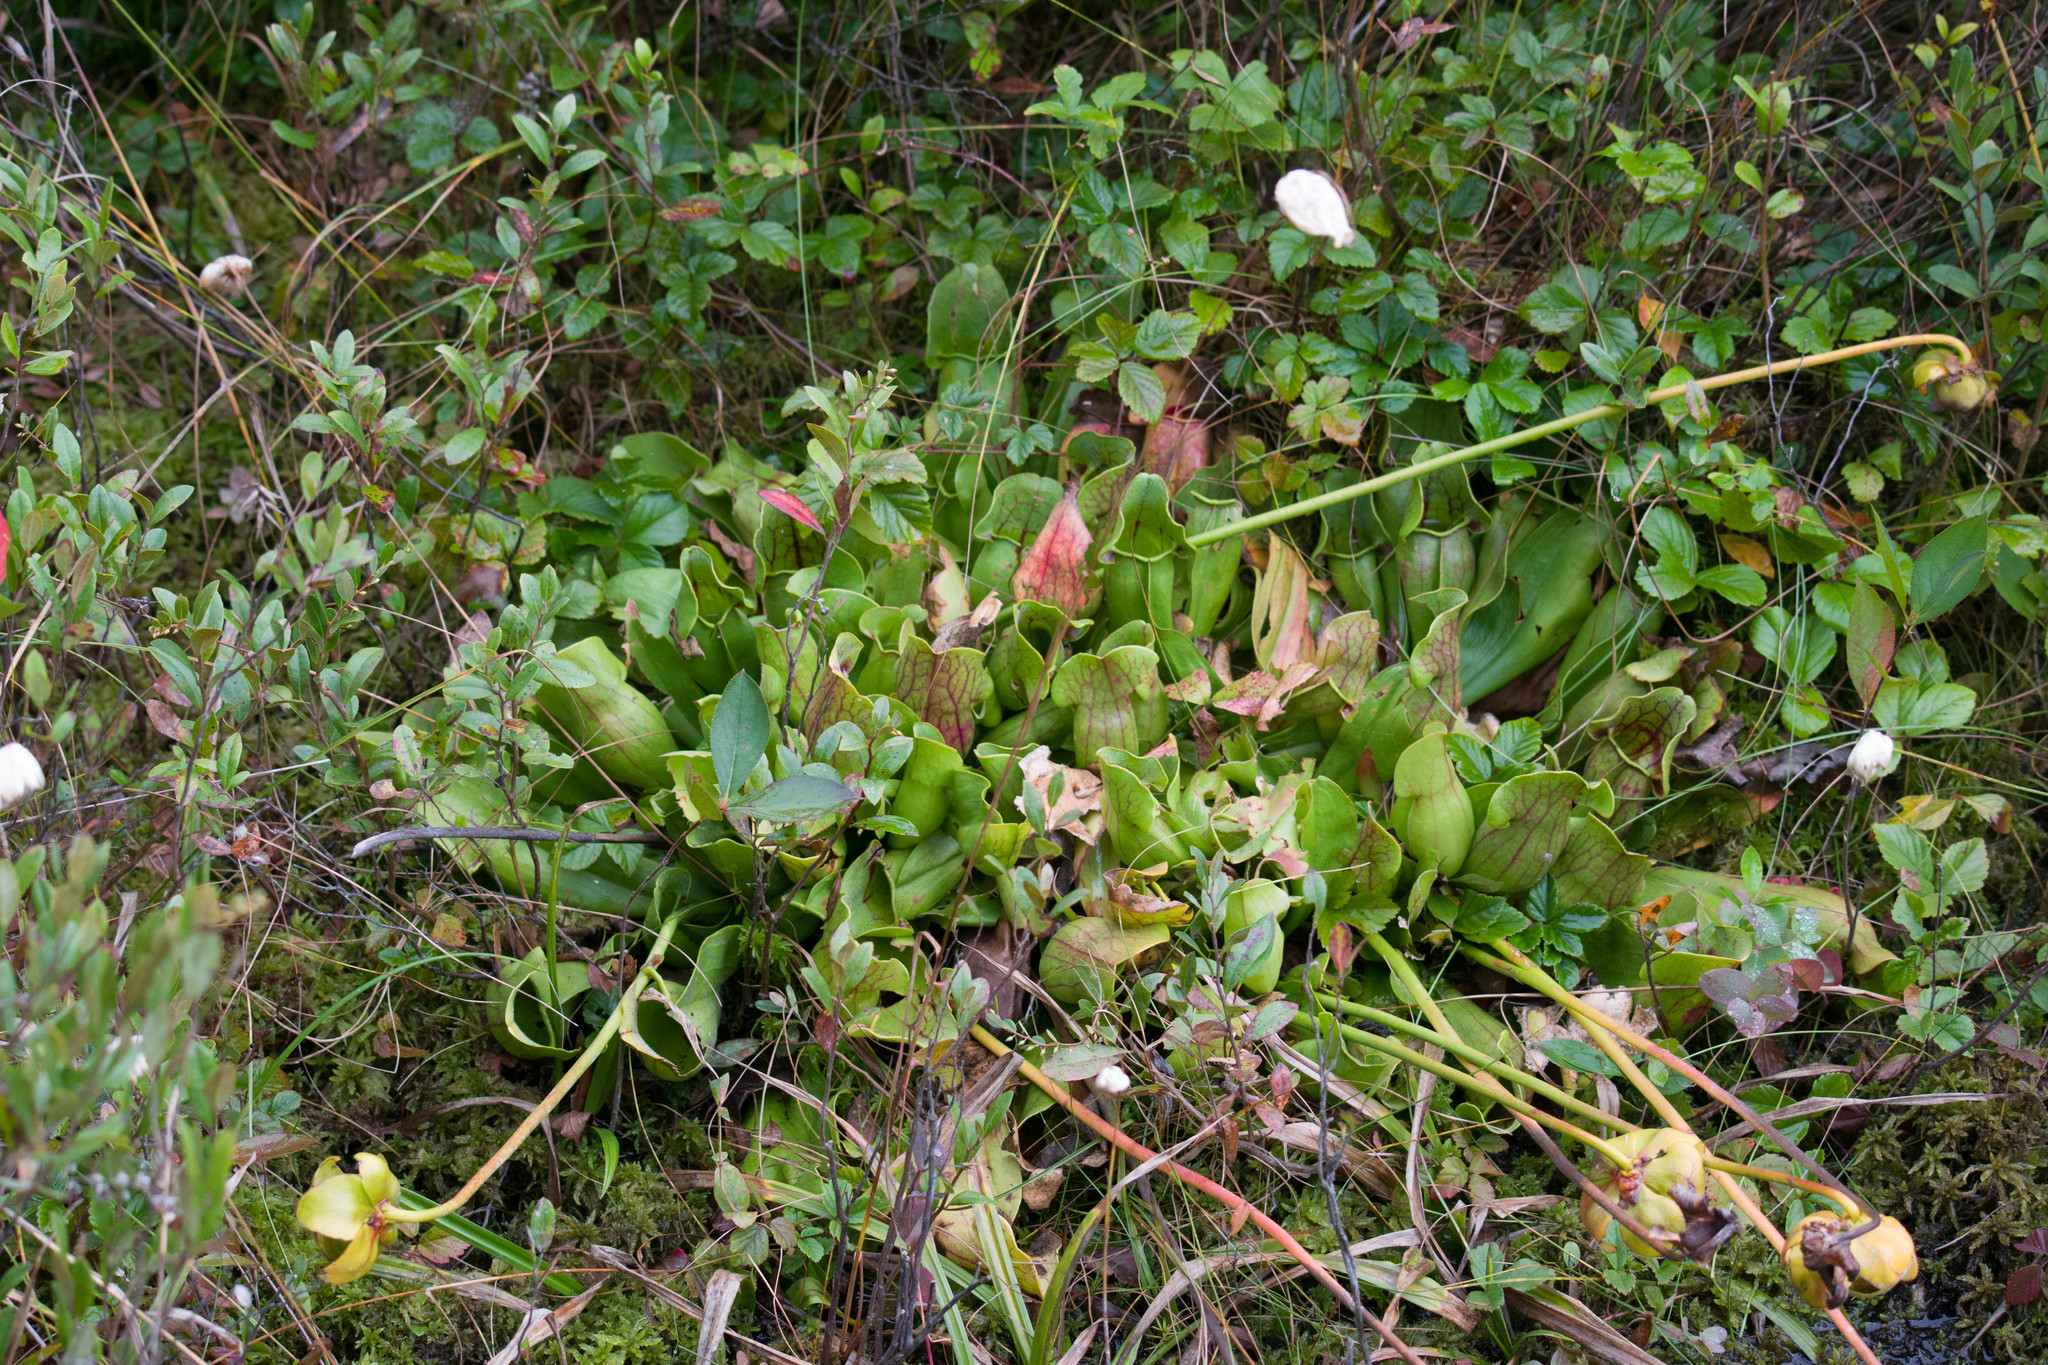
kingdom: Plantae
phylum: Tracheophyta
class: Magnoliopsida
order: Ericales
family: Sarraceniaceae
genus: Sarracenia
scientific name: Sarracenia purpurea
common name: Pitcherplant
